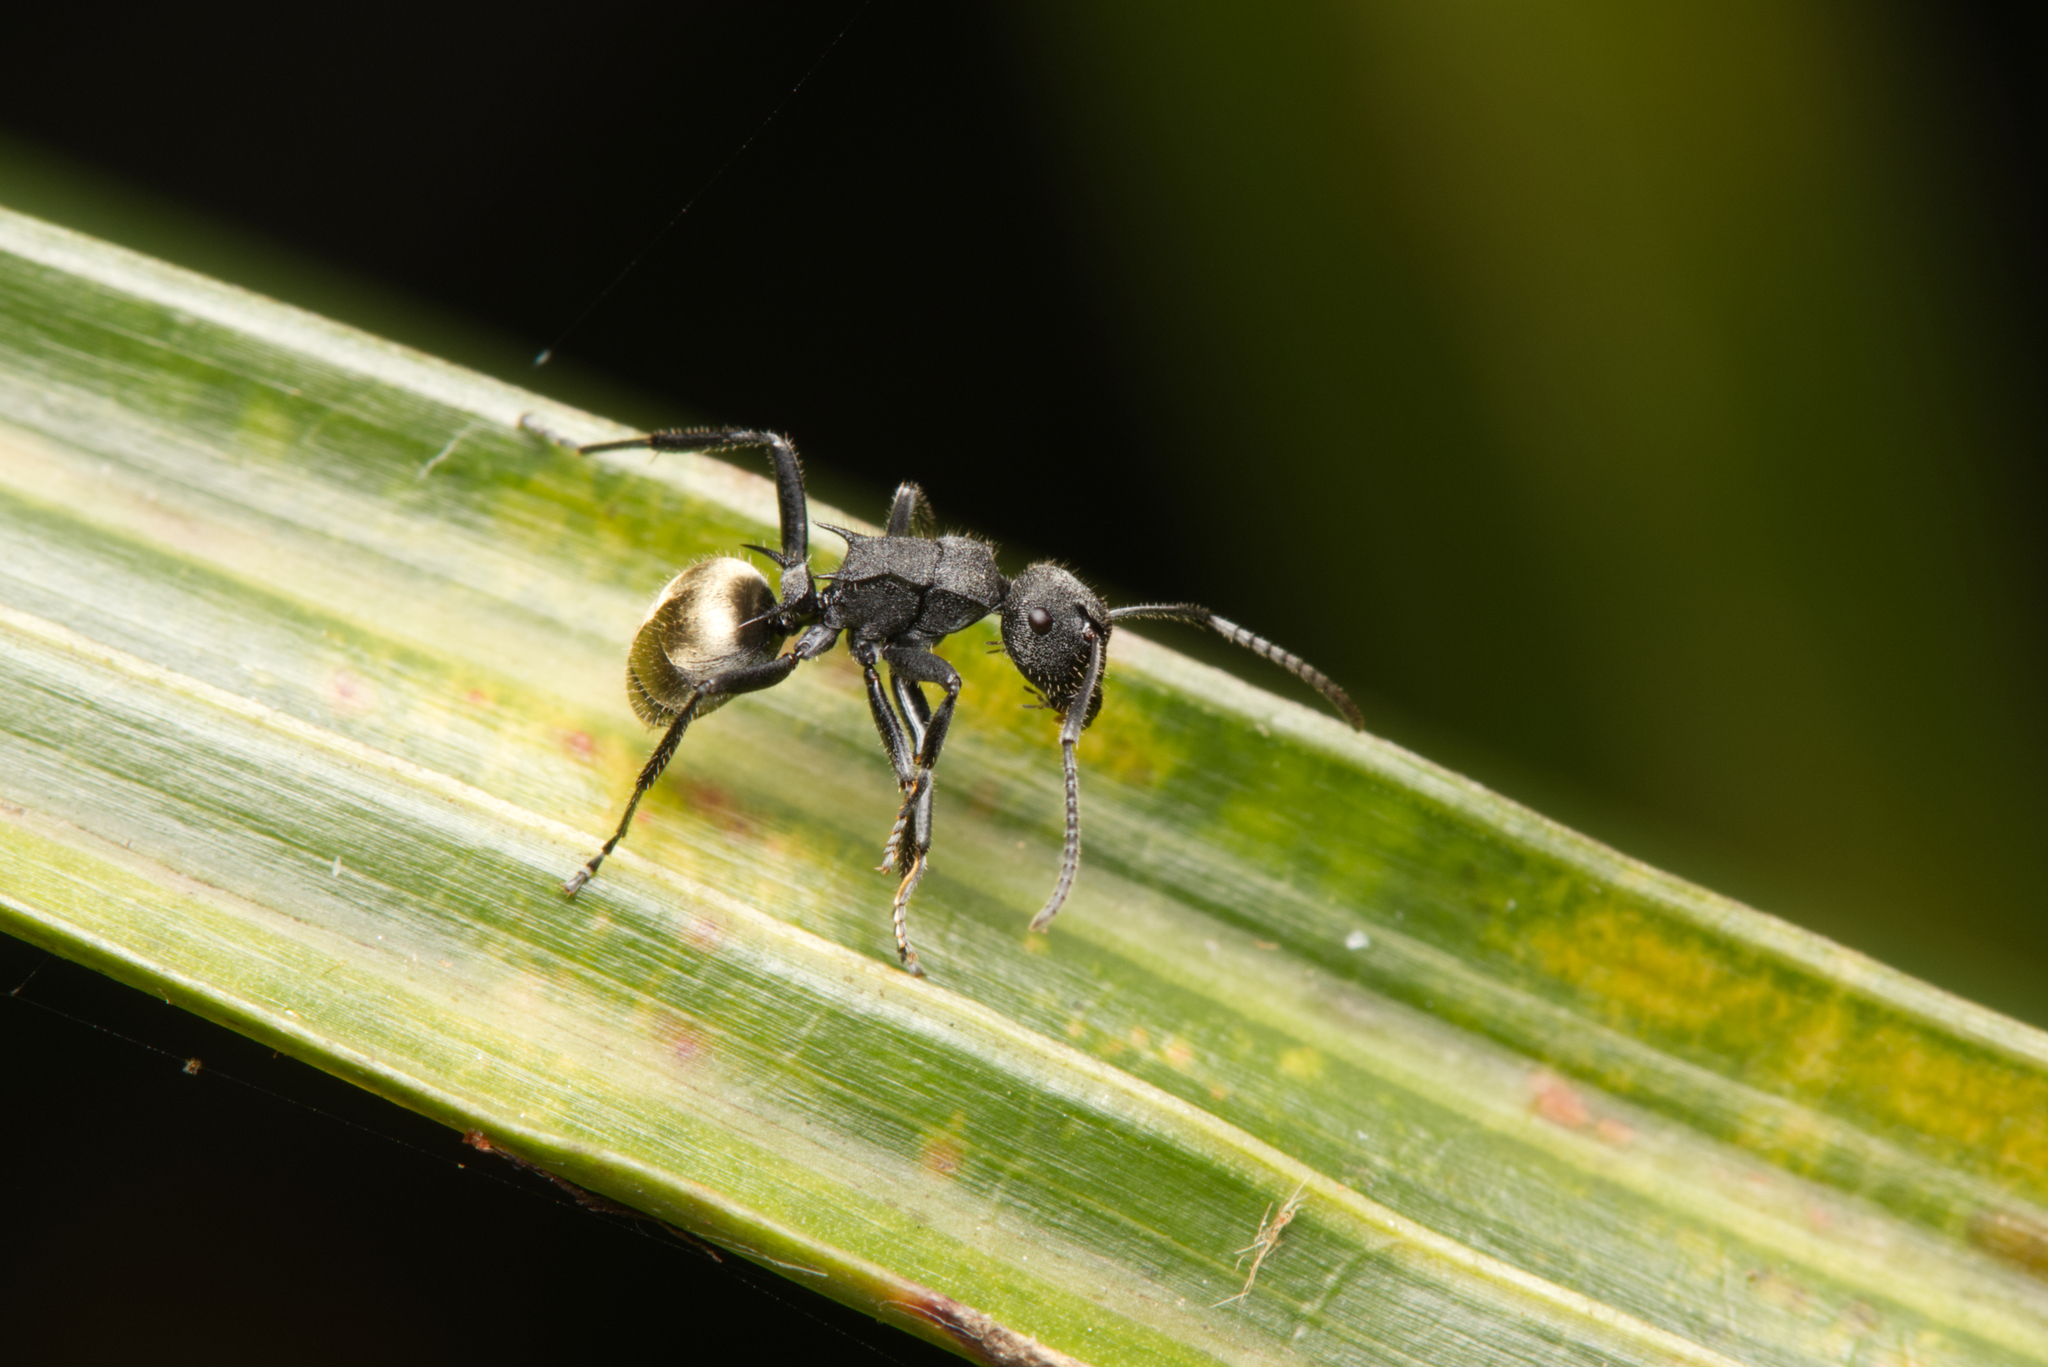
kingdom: Animalia
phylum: Arthropoda
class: Insecta
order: Hymenoptera
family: Formicidae
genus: Polyrhachis
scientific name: Polyrhachis erato
